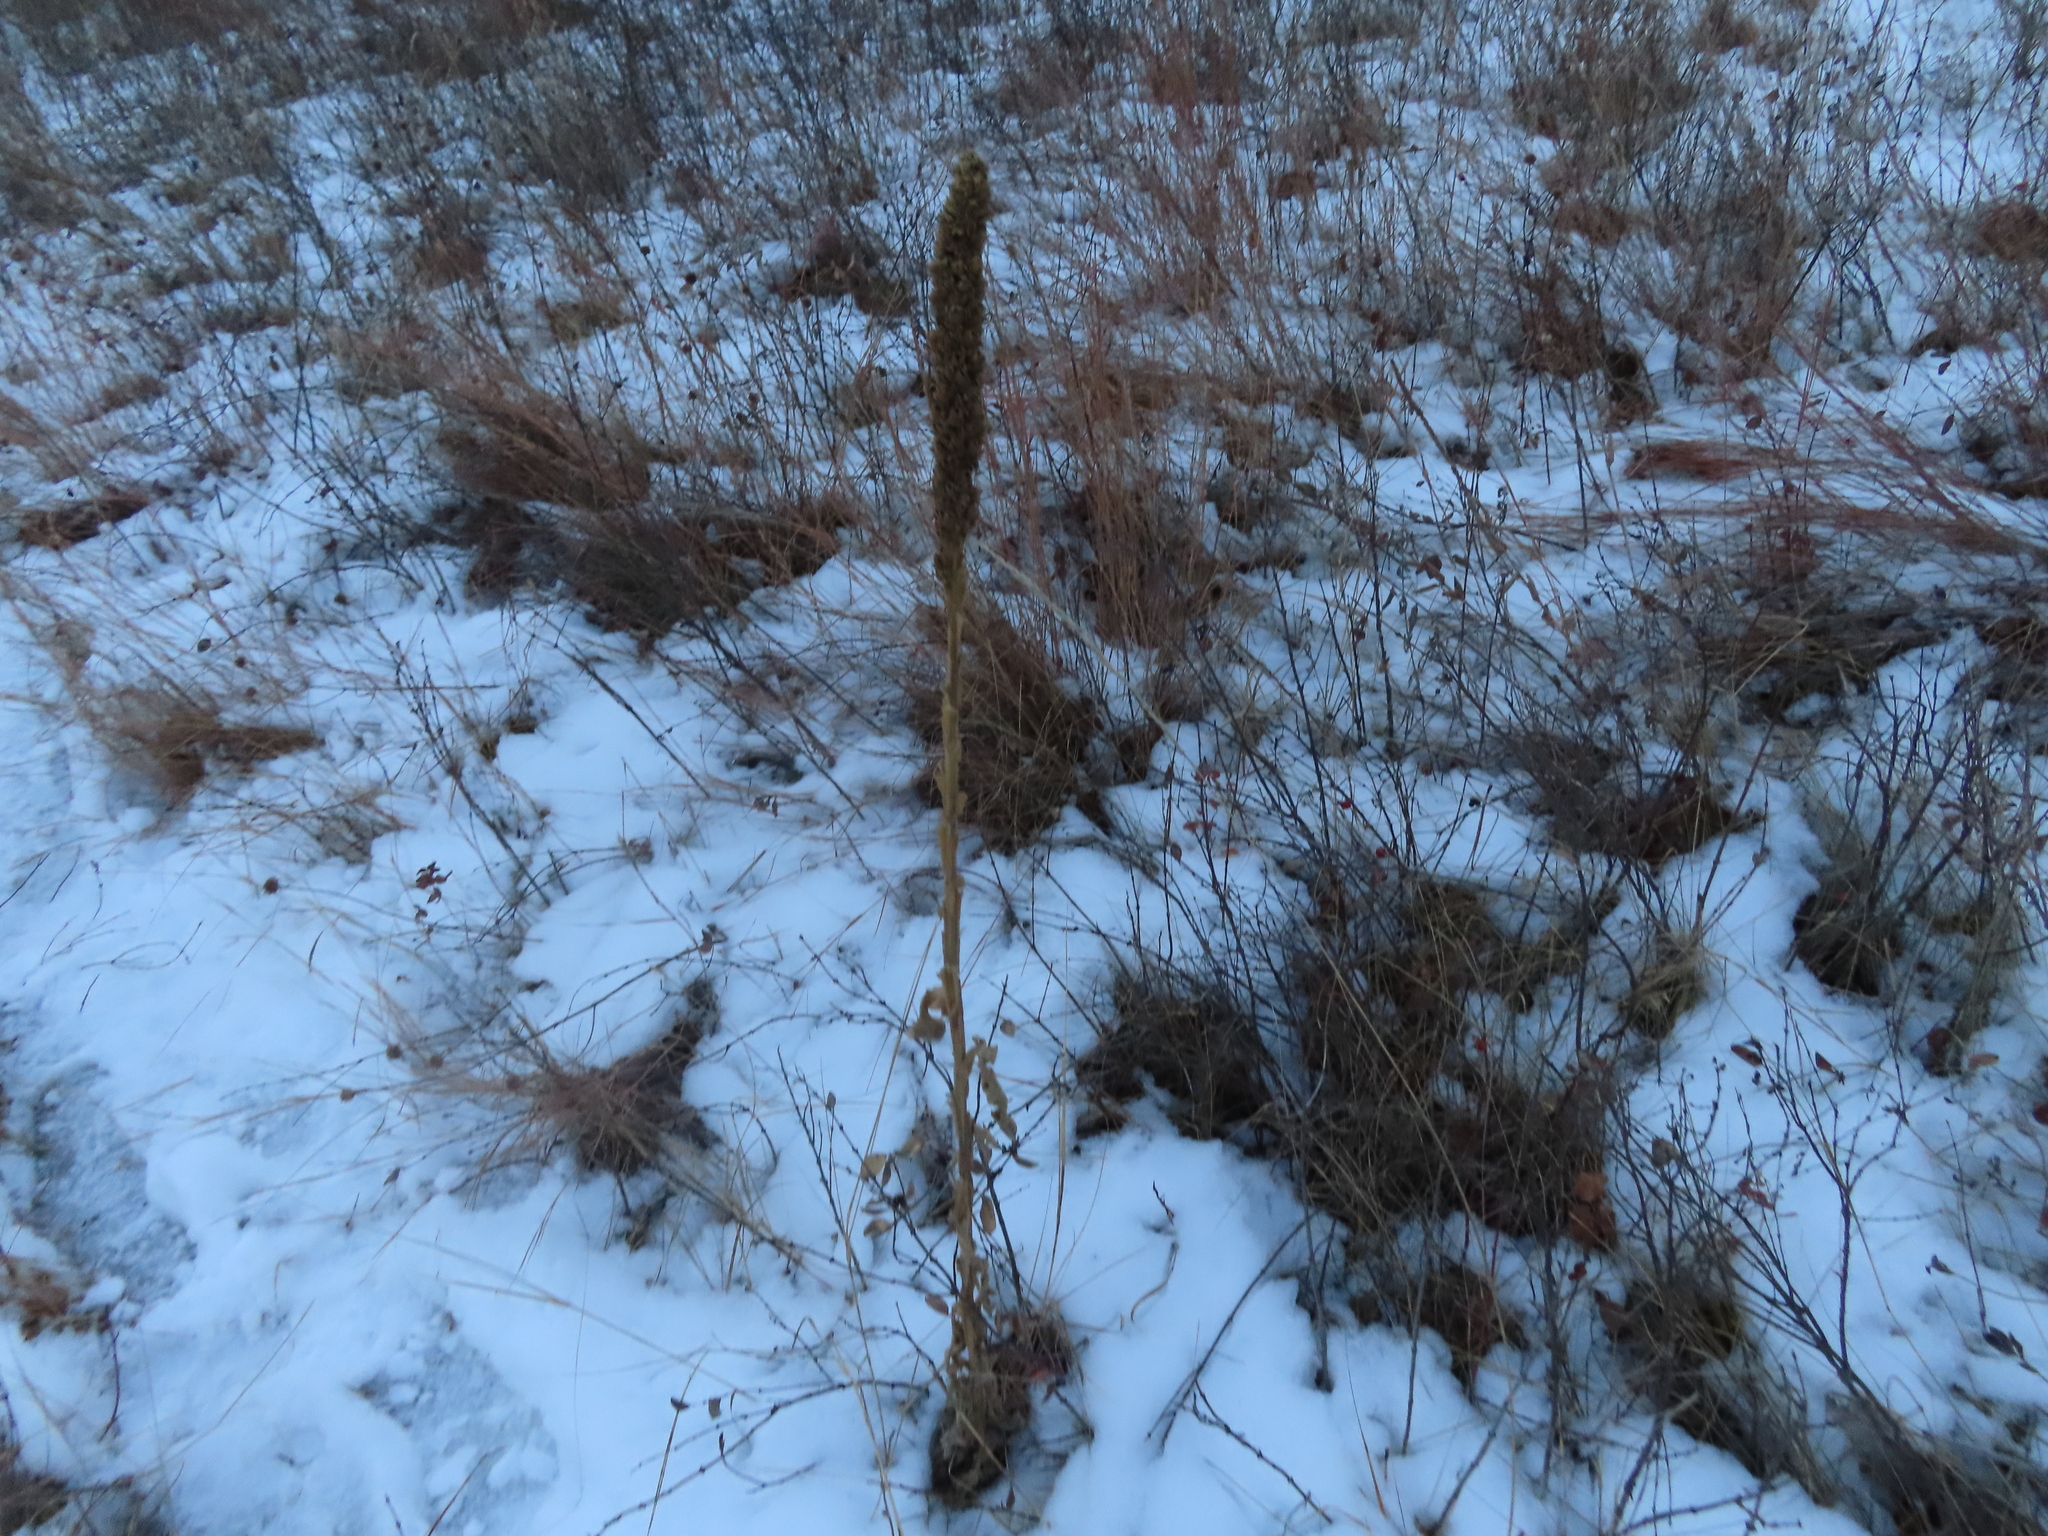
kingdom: Plantae
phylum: Tracheophyta
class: Magnoliopsida
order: Lamiales
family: Scrophulariaceae
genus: Verbascum
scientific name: Verbascum thapsus
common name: Common mullein
